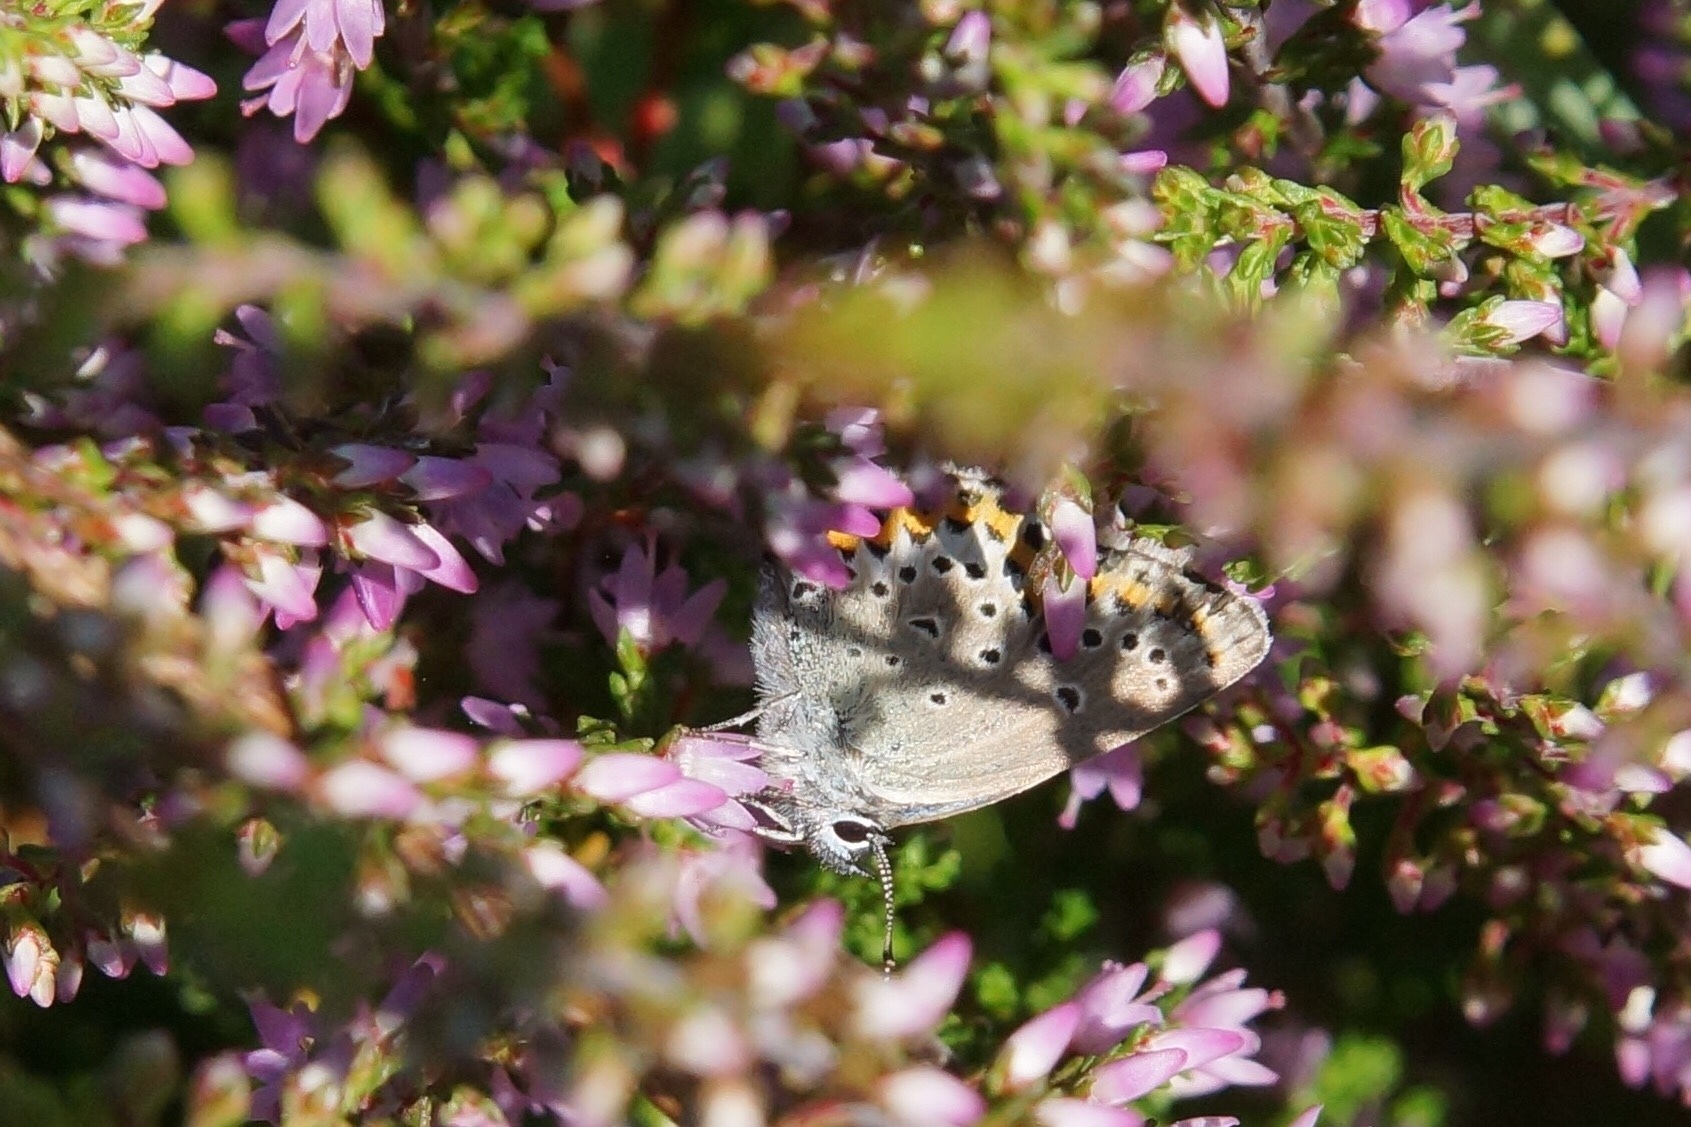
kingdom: Animalia
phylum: Arthropoda
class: Insecta
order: Lepidoptera
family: Lycaenidae
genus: Lycaeides
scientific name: Lycaeides idas
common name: Northern blue
